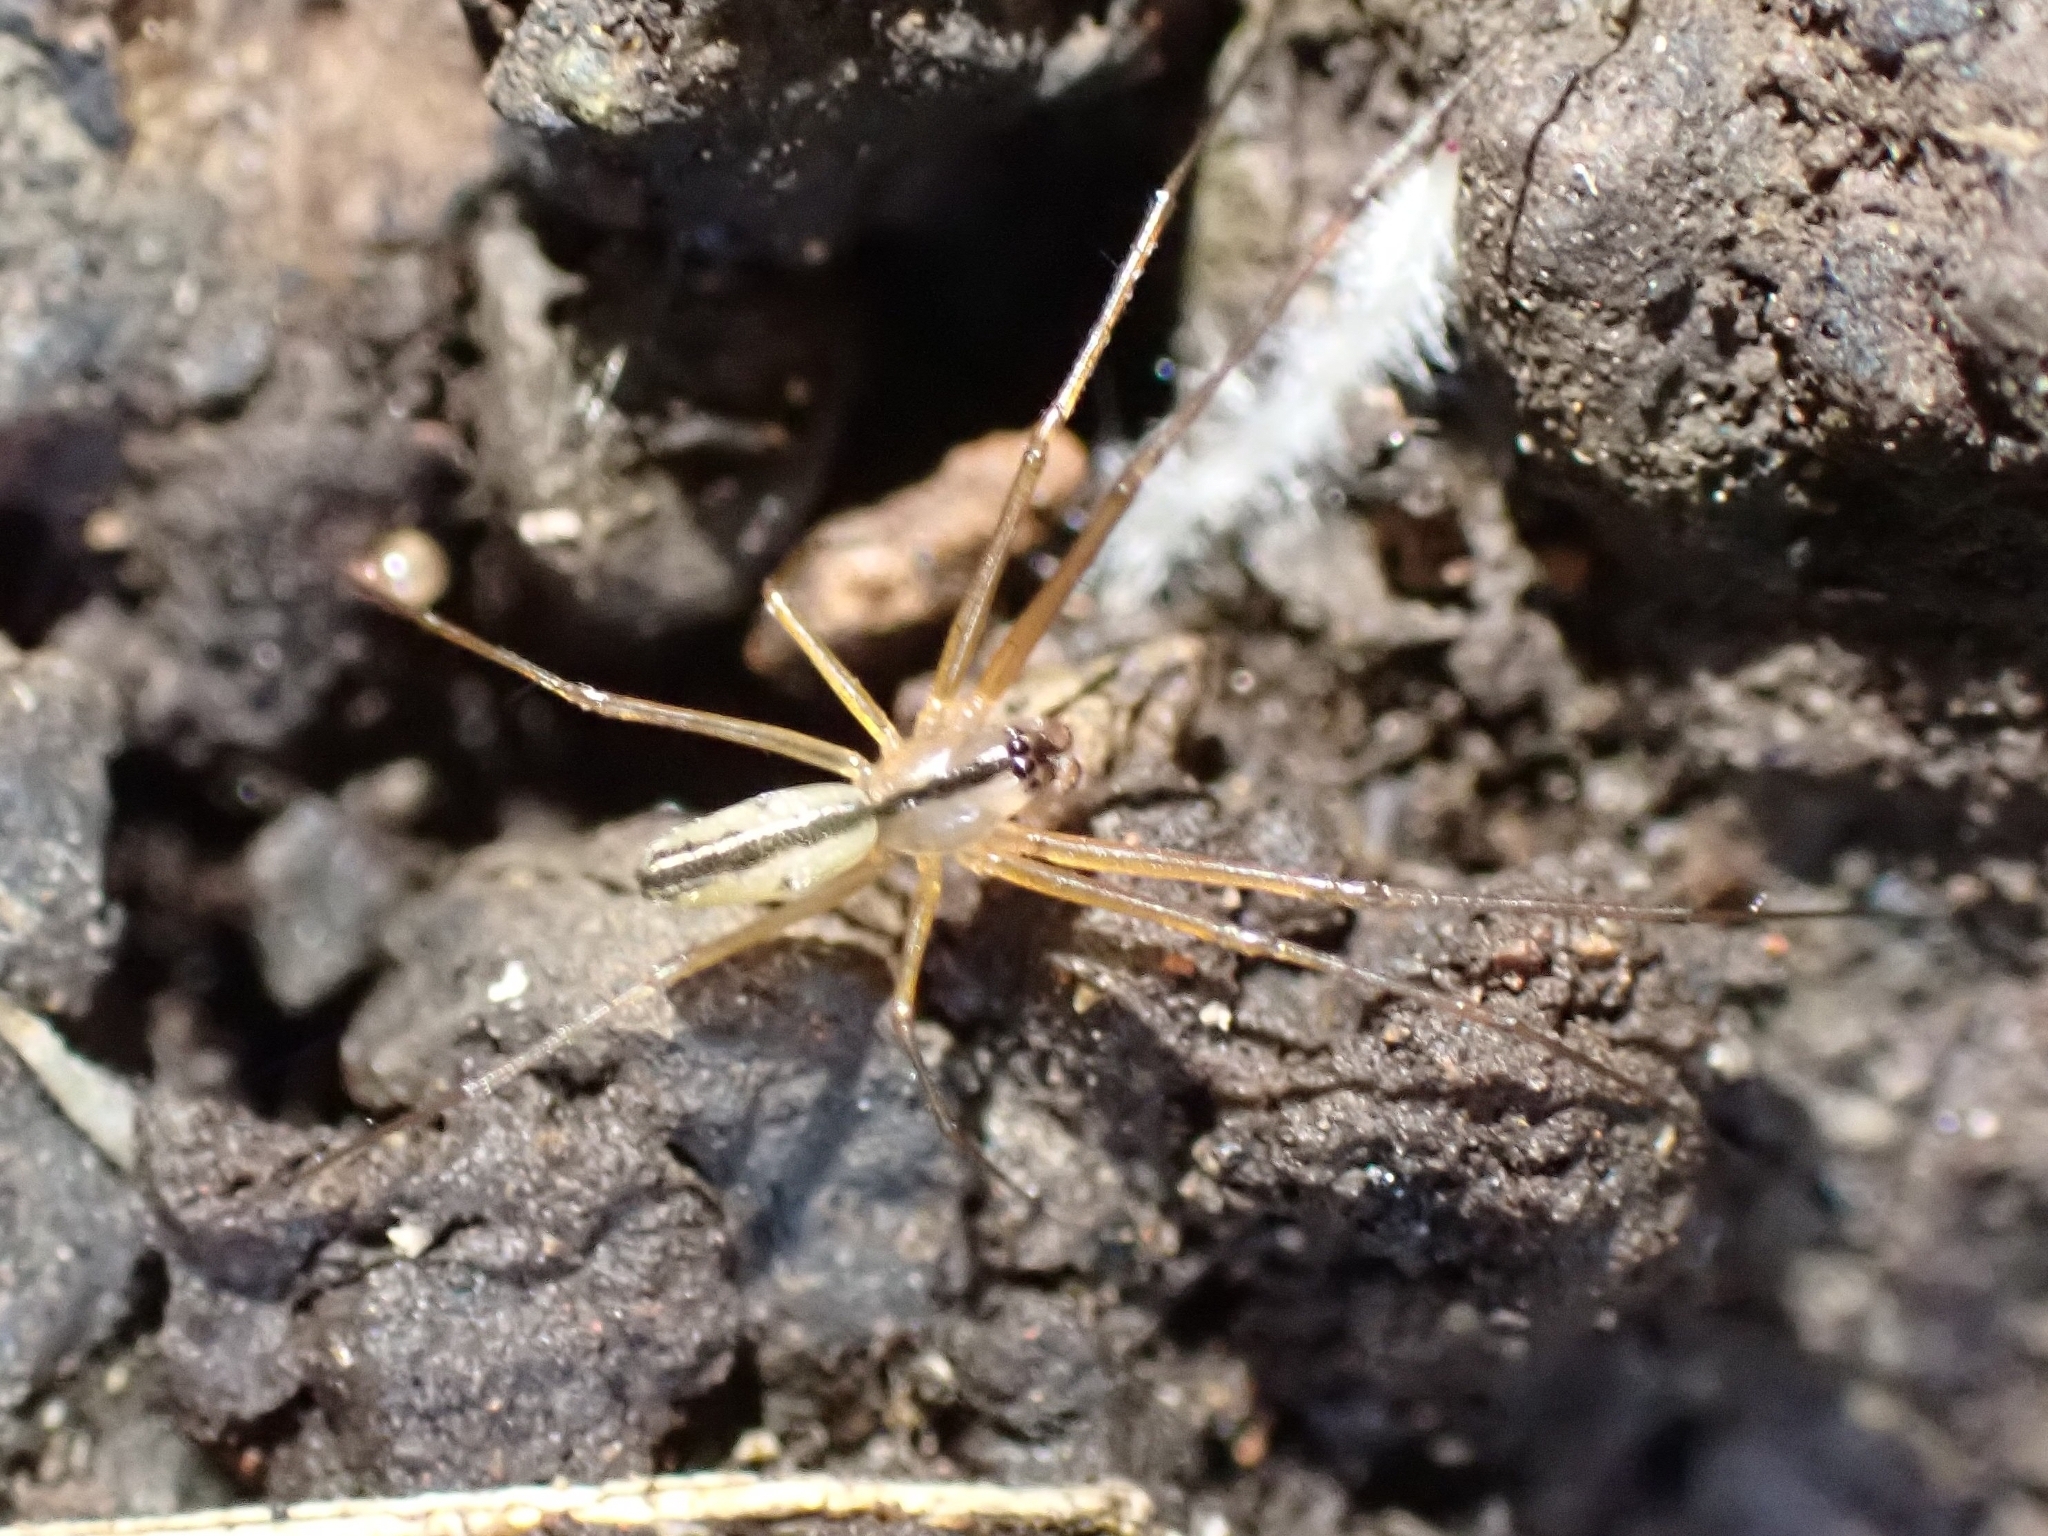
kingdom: Animalia
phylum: Arthropoda
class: Arachnida
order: Araneae
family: Linyphiidae
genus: Microlinyphia
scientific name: Microlinyphia johnsoni
